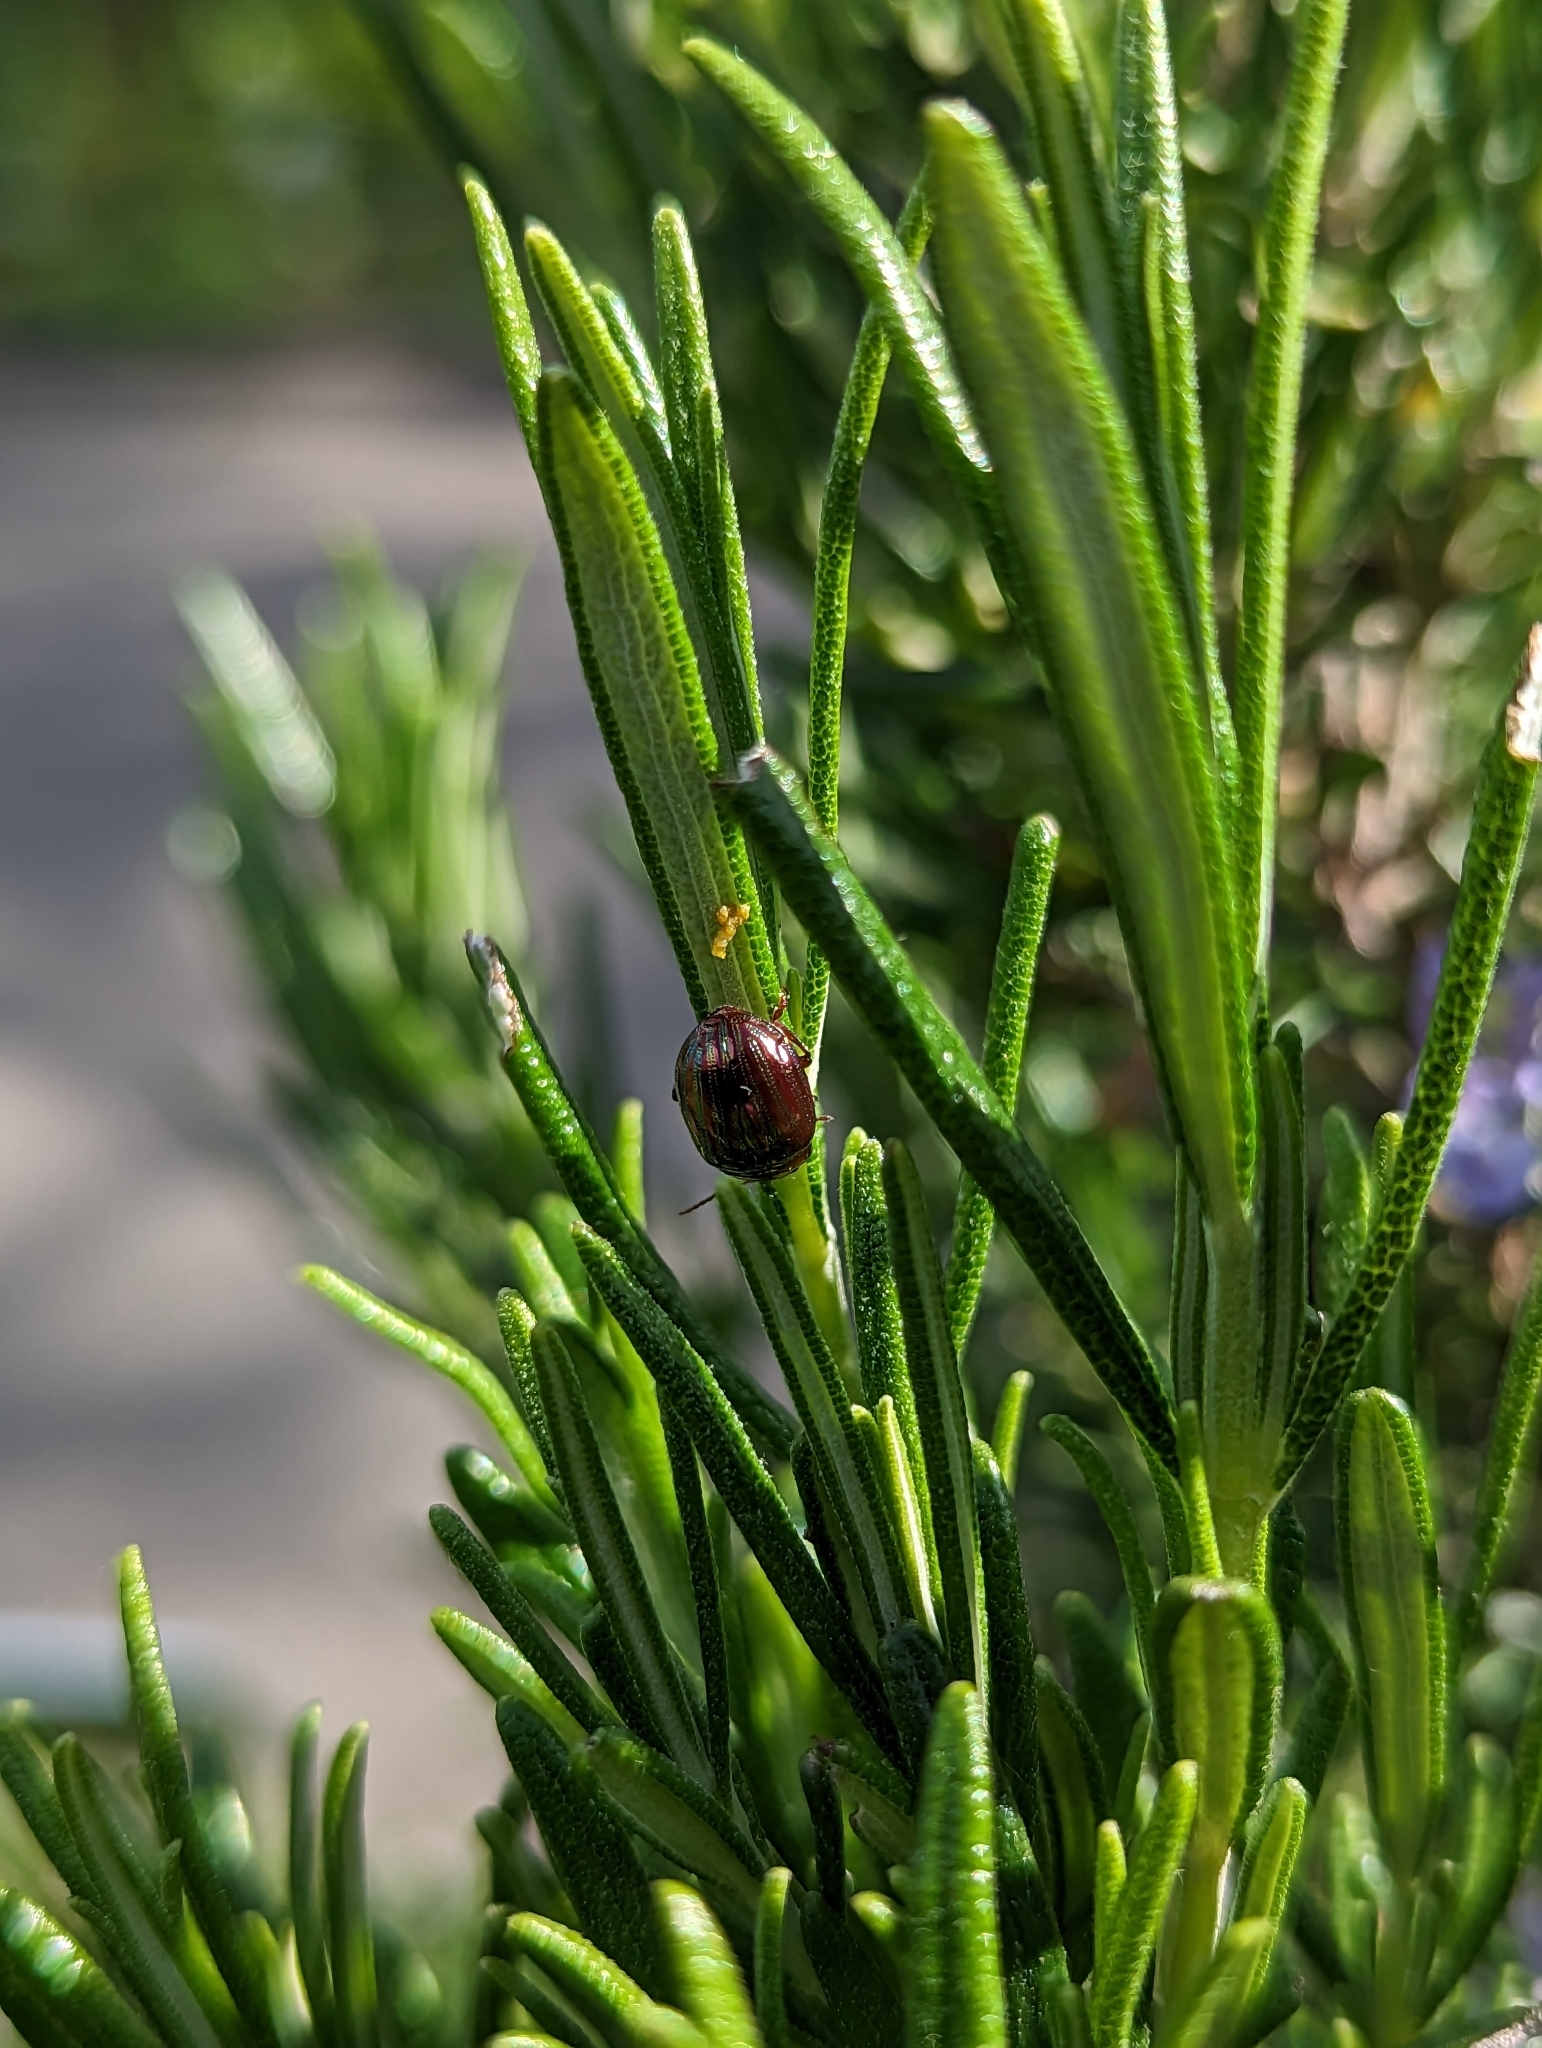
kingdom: Animalia
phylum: Arthropoda
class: Insecta
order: Coleoptera
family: Chrysomelidae
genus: Chrysolina
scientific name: Chrysolina americana
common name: Rosemary beetle
